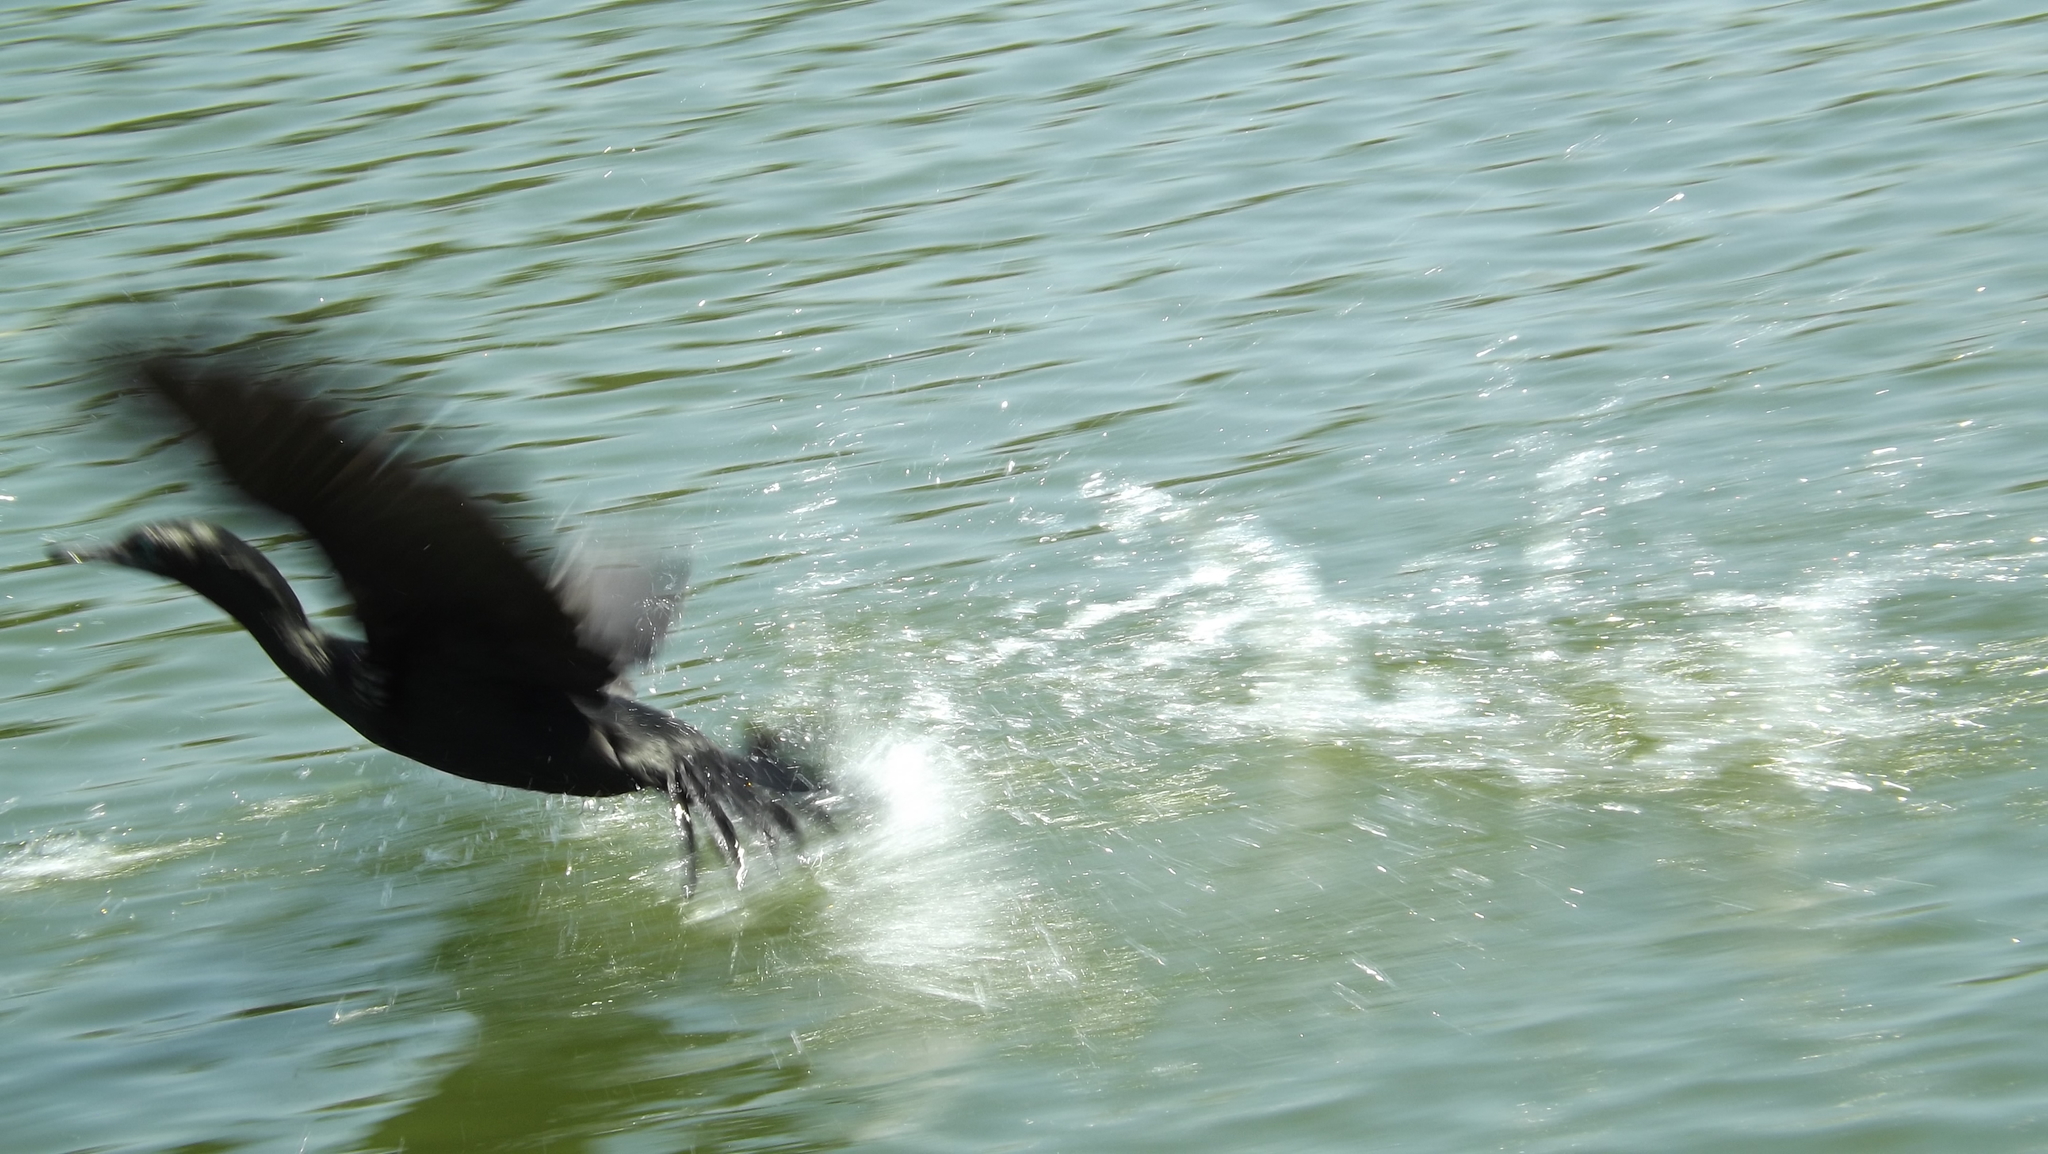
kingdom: Animalia
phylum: Chordata
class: Aves
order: Suliformes
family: Phalacrocoracidae
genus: Phalacrocorax
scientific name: Phalacrocorax sulcirostris
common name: Little black cormorant
